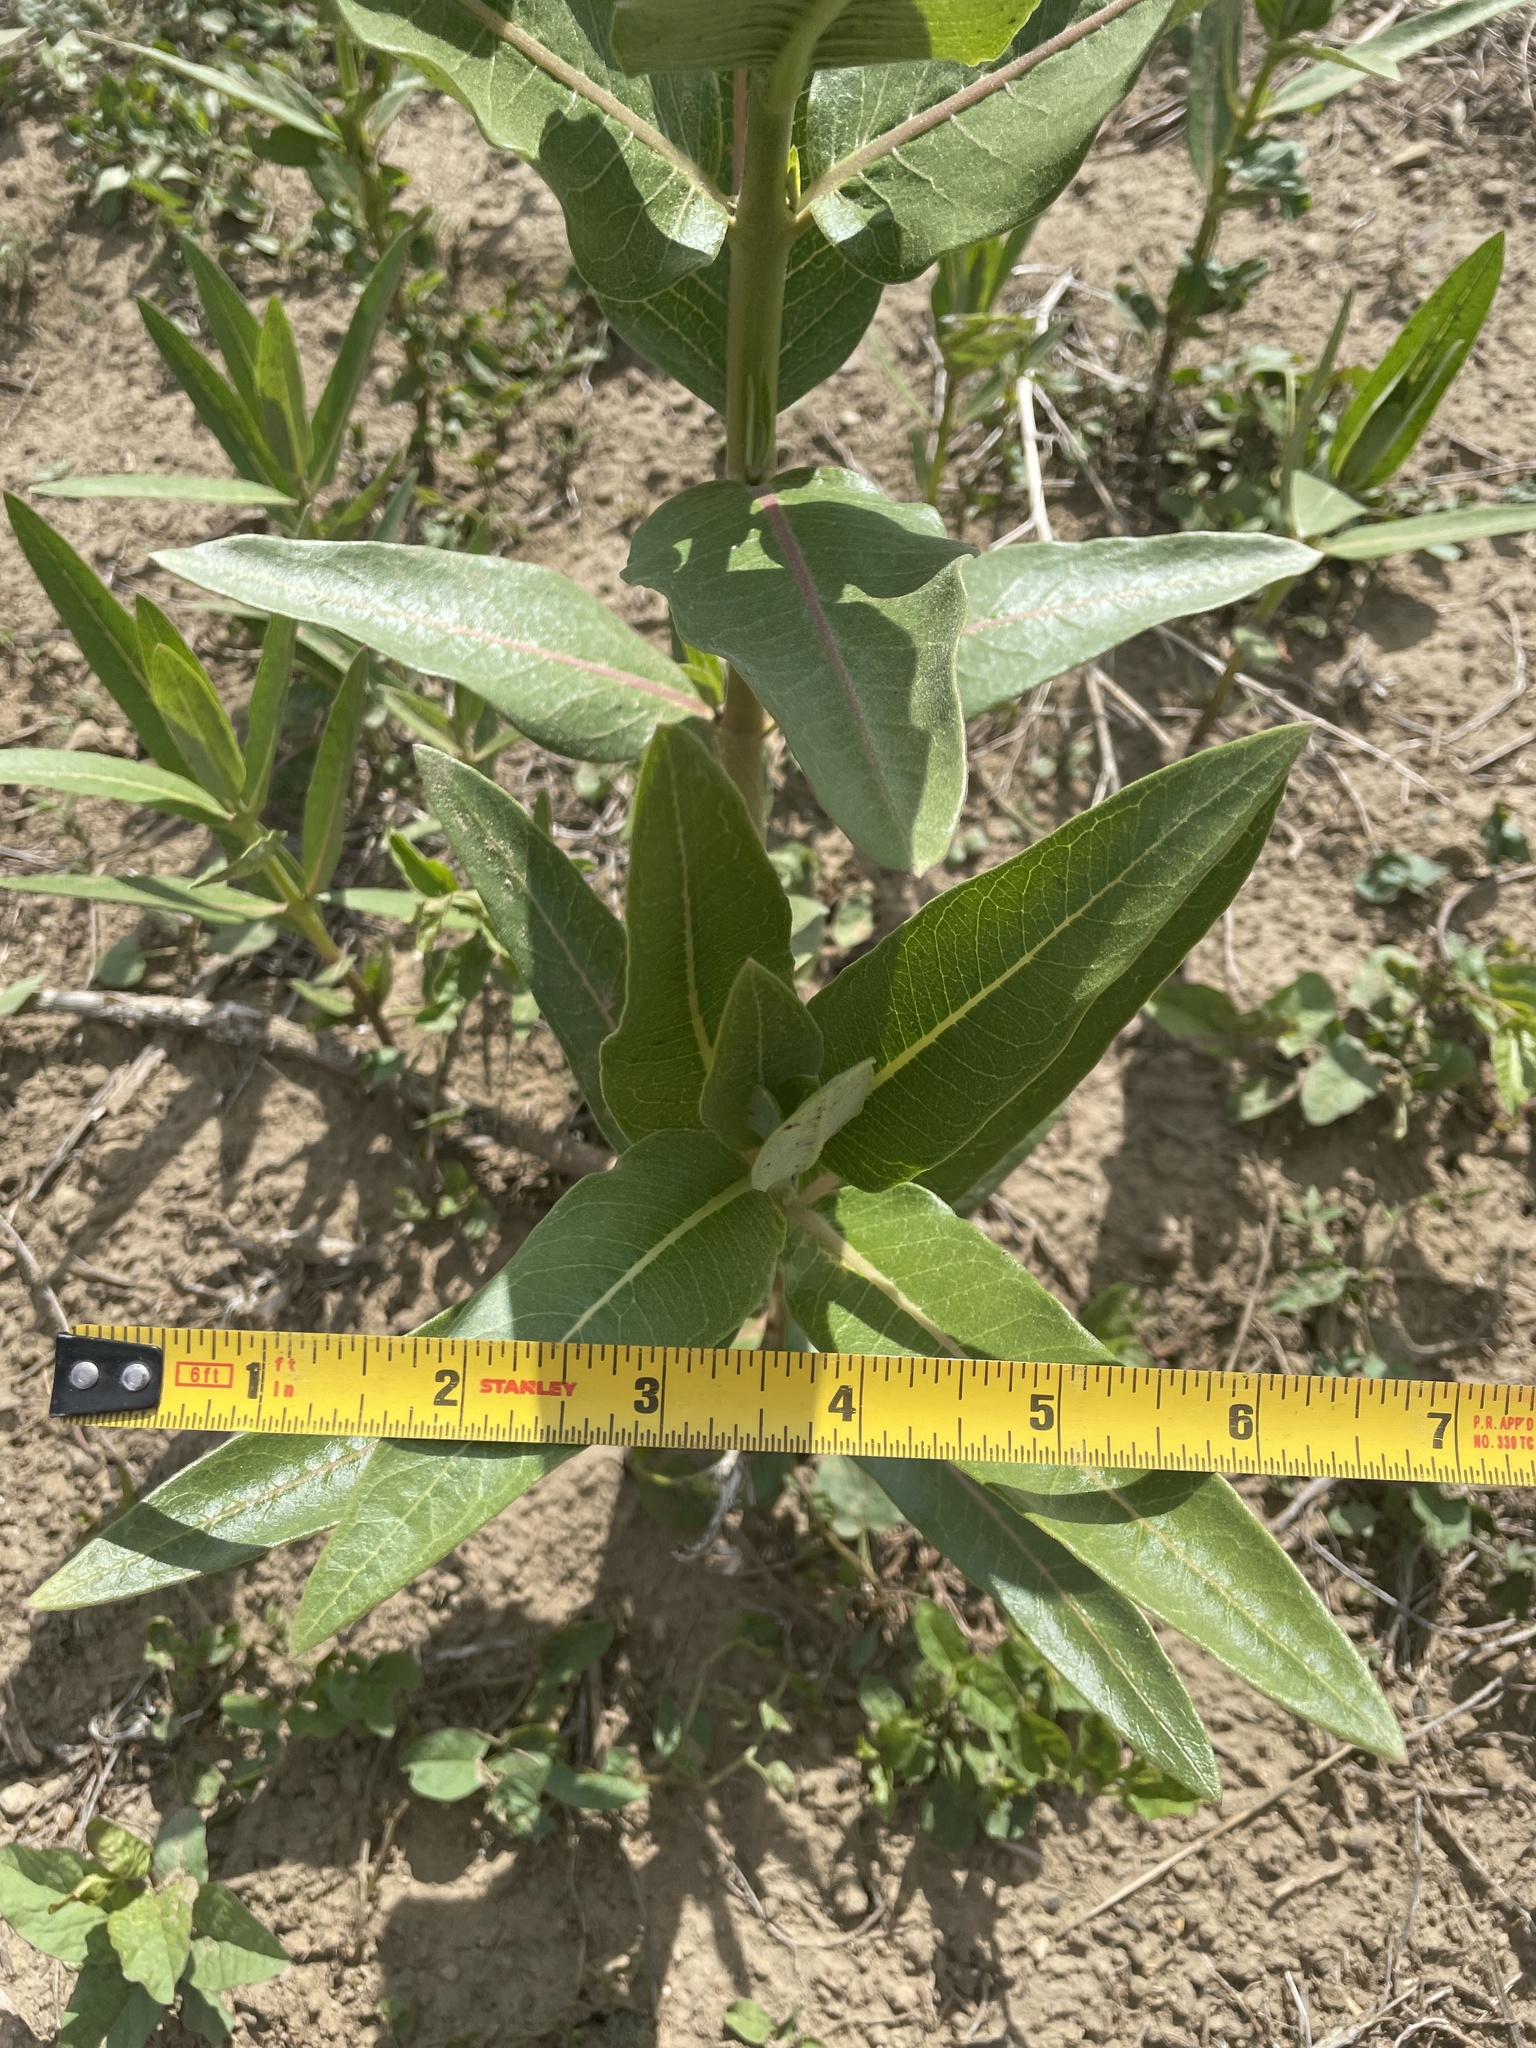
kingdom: Plantae
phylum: Tracheophyta
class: Magnoliopsida
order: Gentianales
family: Apocynaceae
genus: Asclepias
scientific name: Asclepias speciosa
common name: Showy milkweed
